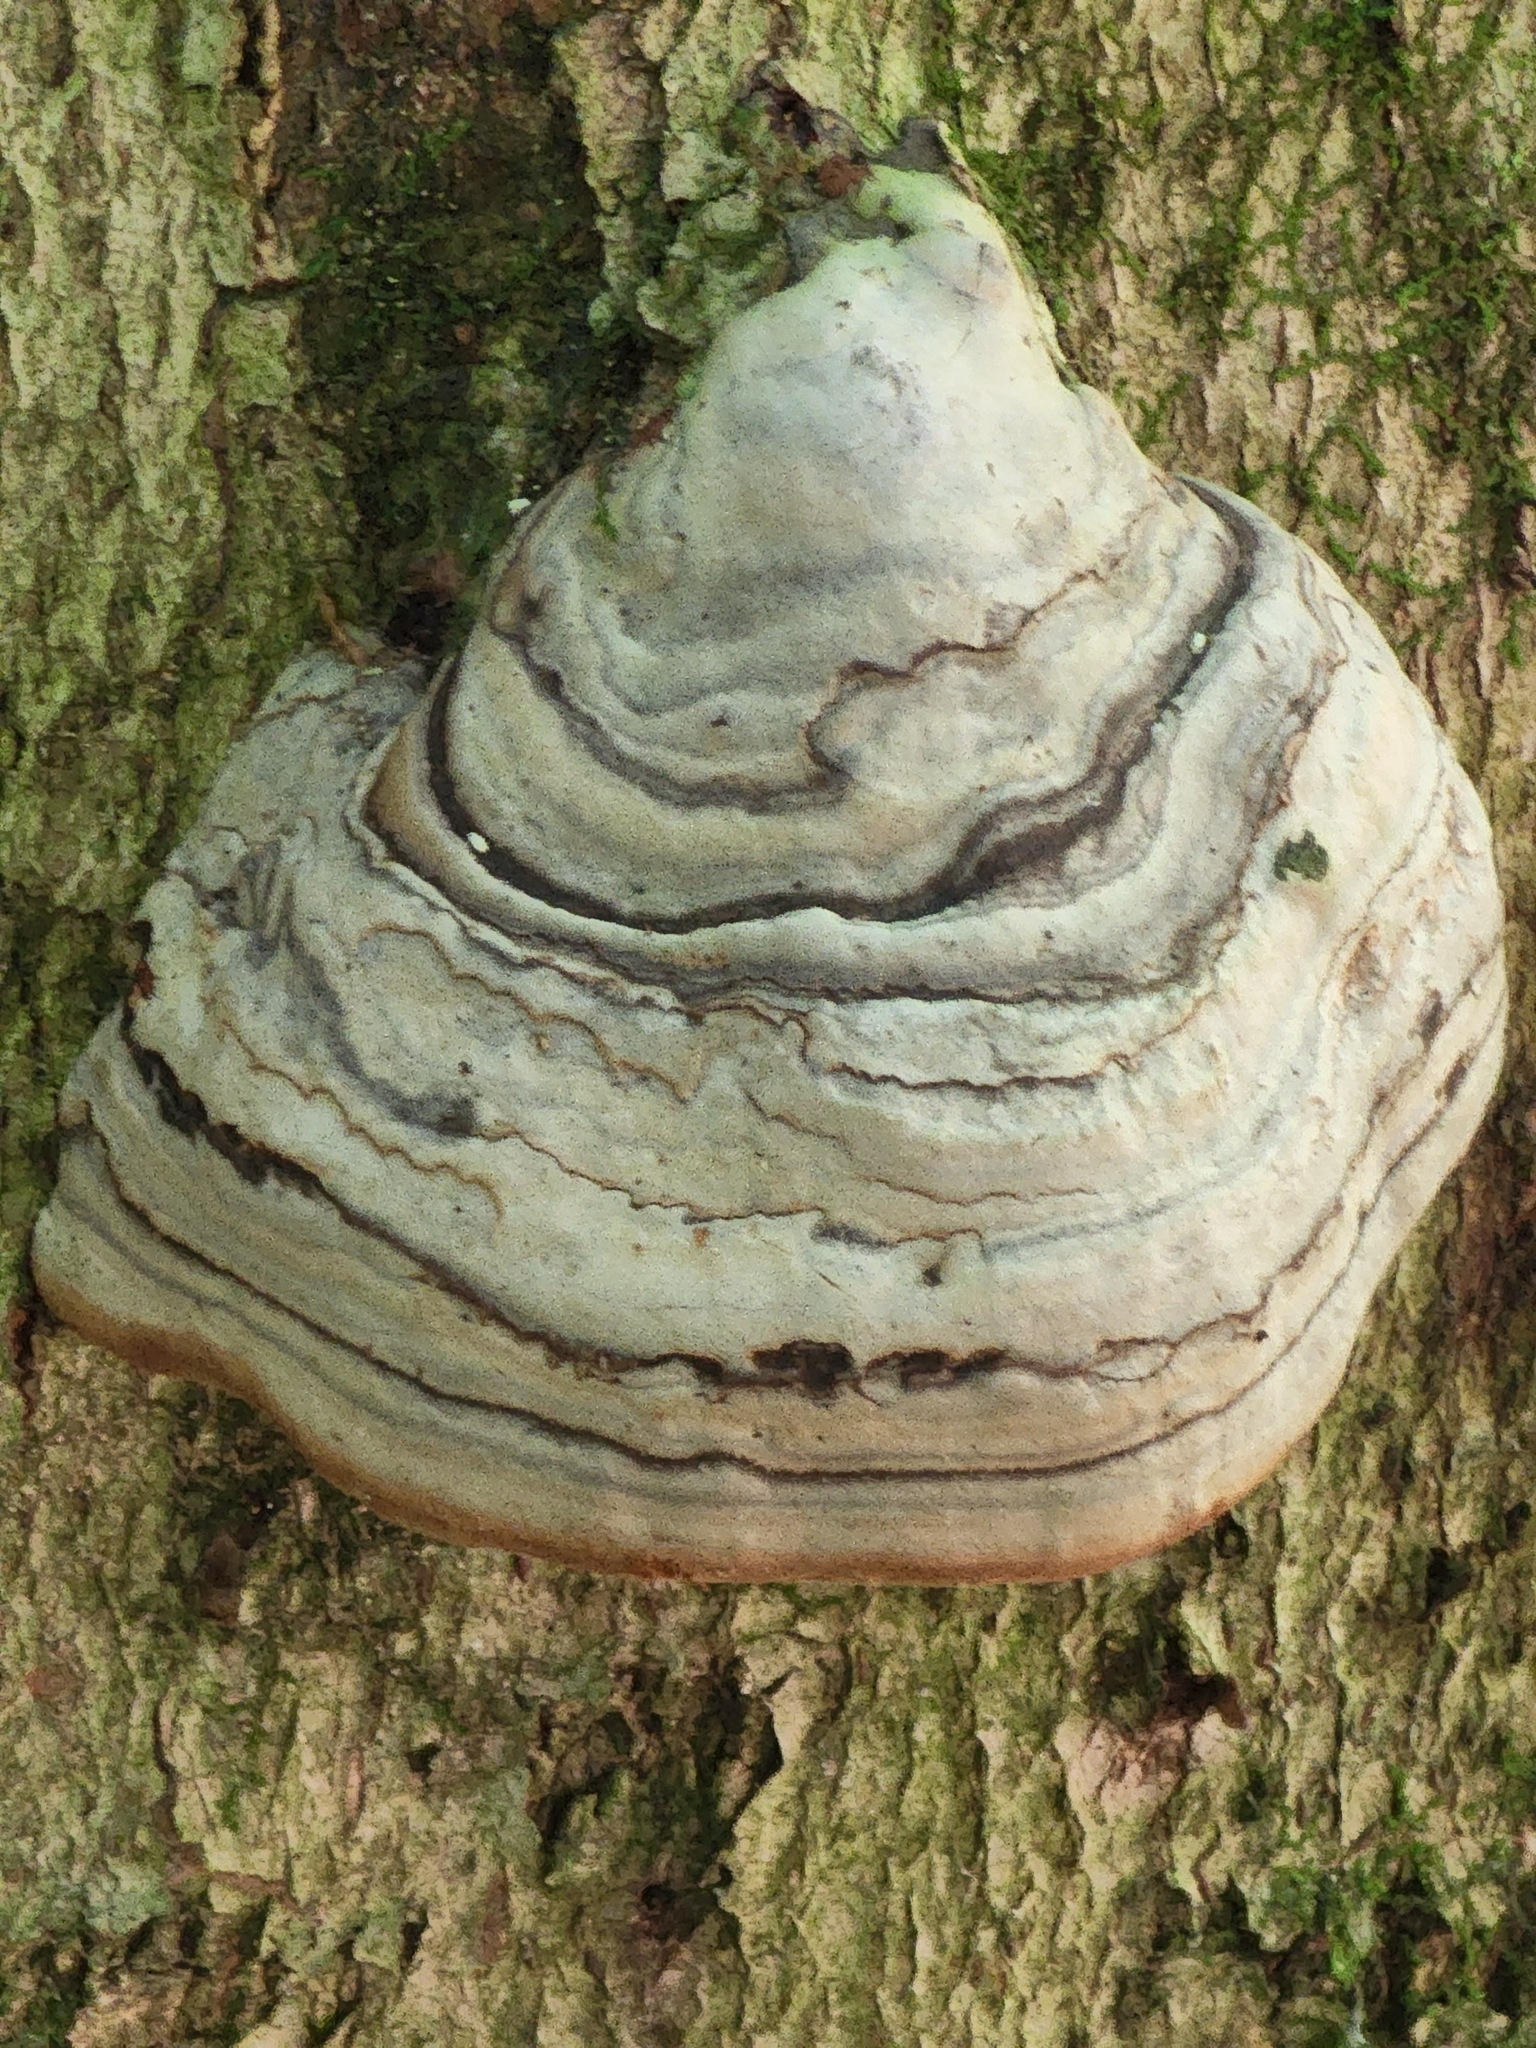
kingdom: Fungi
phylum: Basidiomycota
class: Agaricomycetes
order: Polyporales
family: Polyporaceae
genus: Fomes
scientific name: Fomes fomentarius
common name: Hoof fungus
